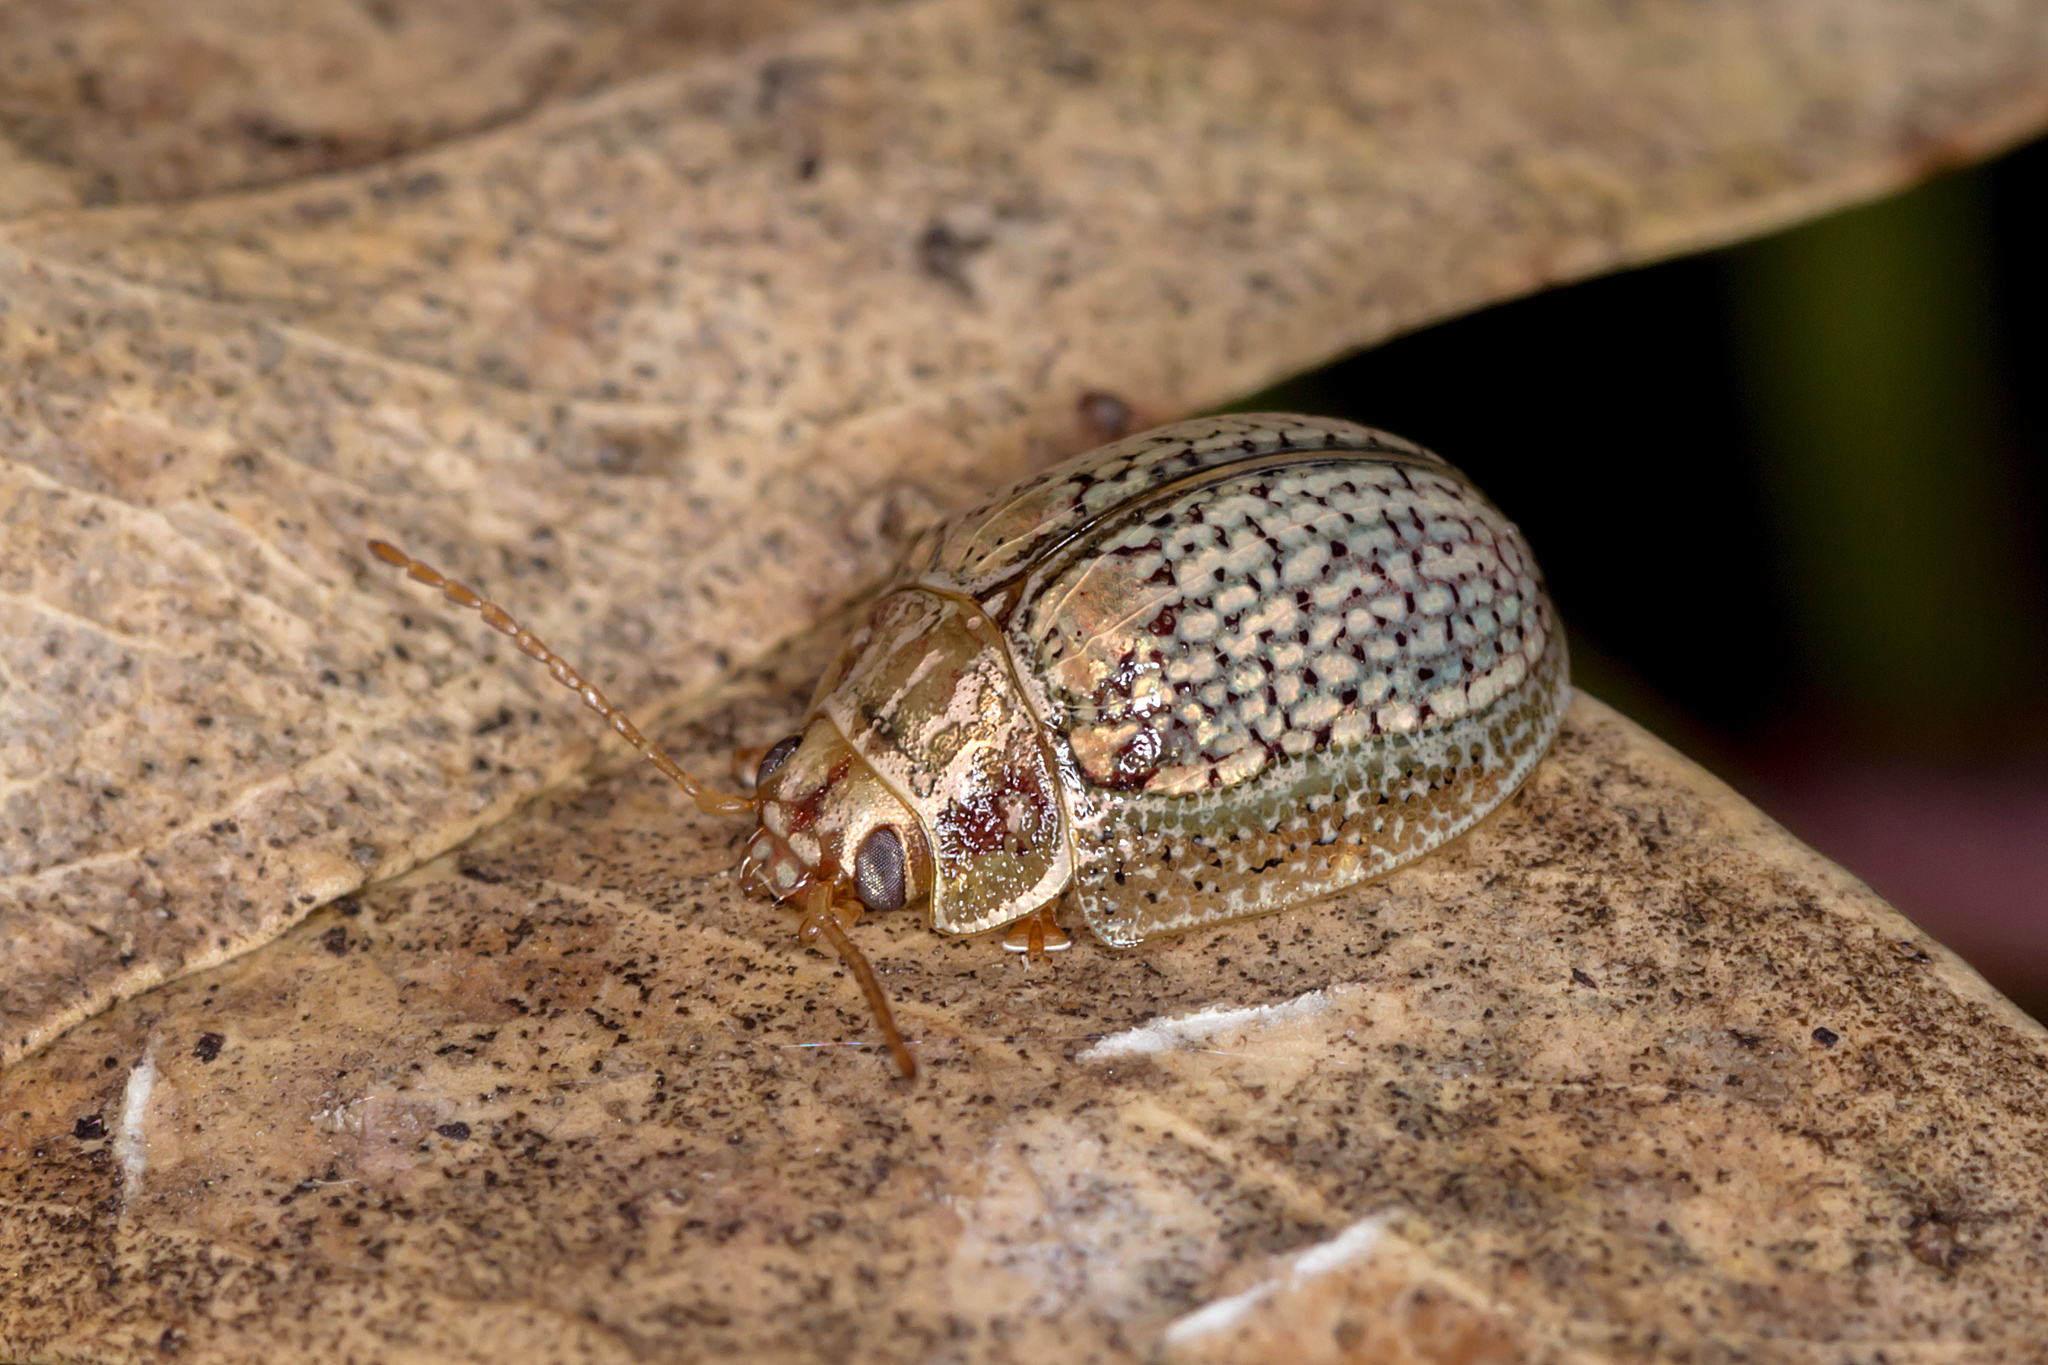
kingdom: Animalia
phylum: Arthropoda
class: Insecta
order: Coleoptera
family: Chrysomelidae
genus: Paropsisterna
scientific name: Paropsisterna
